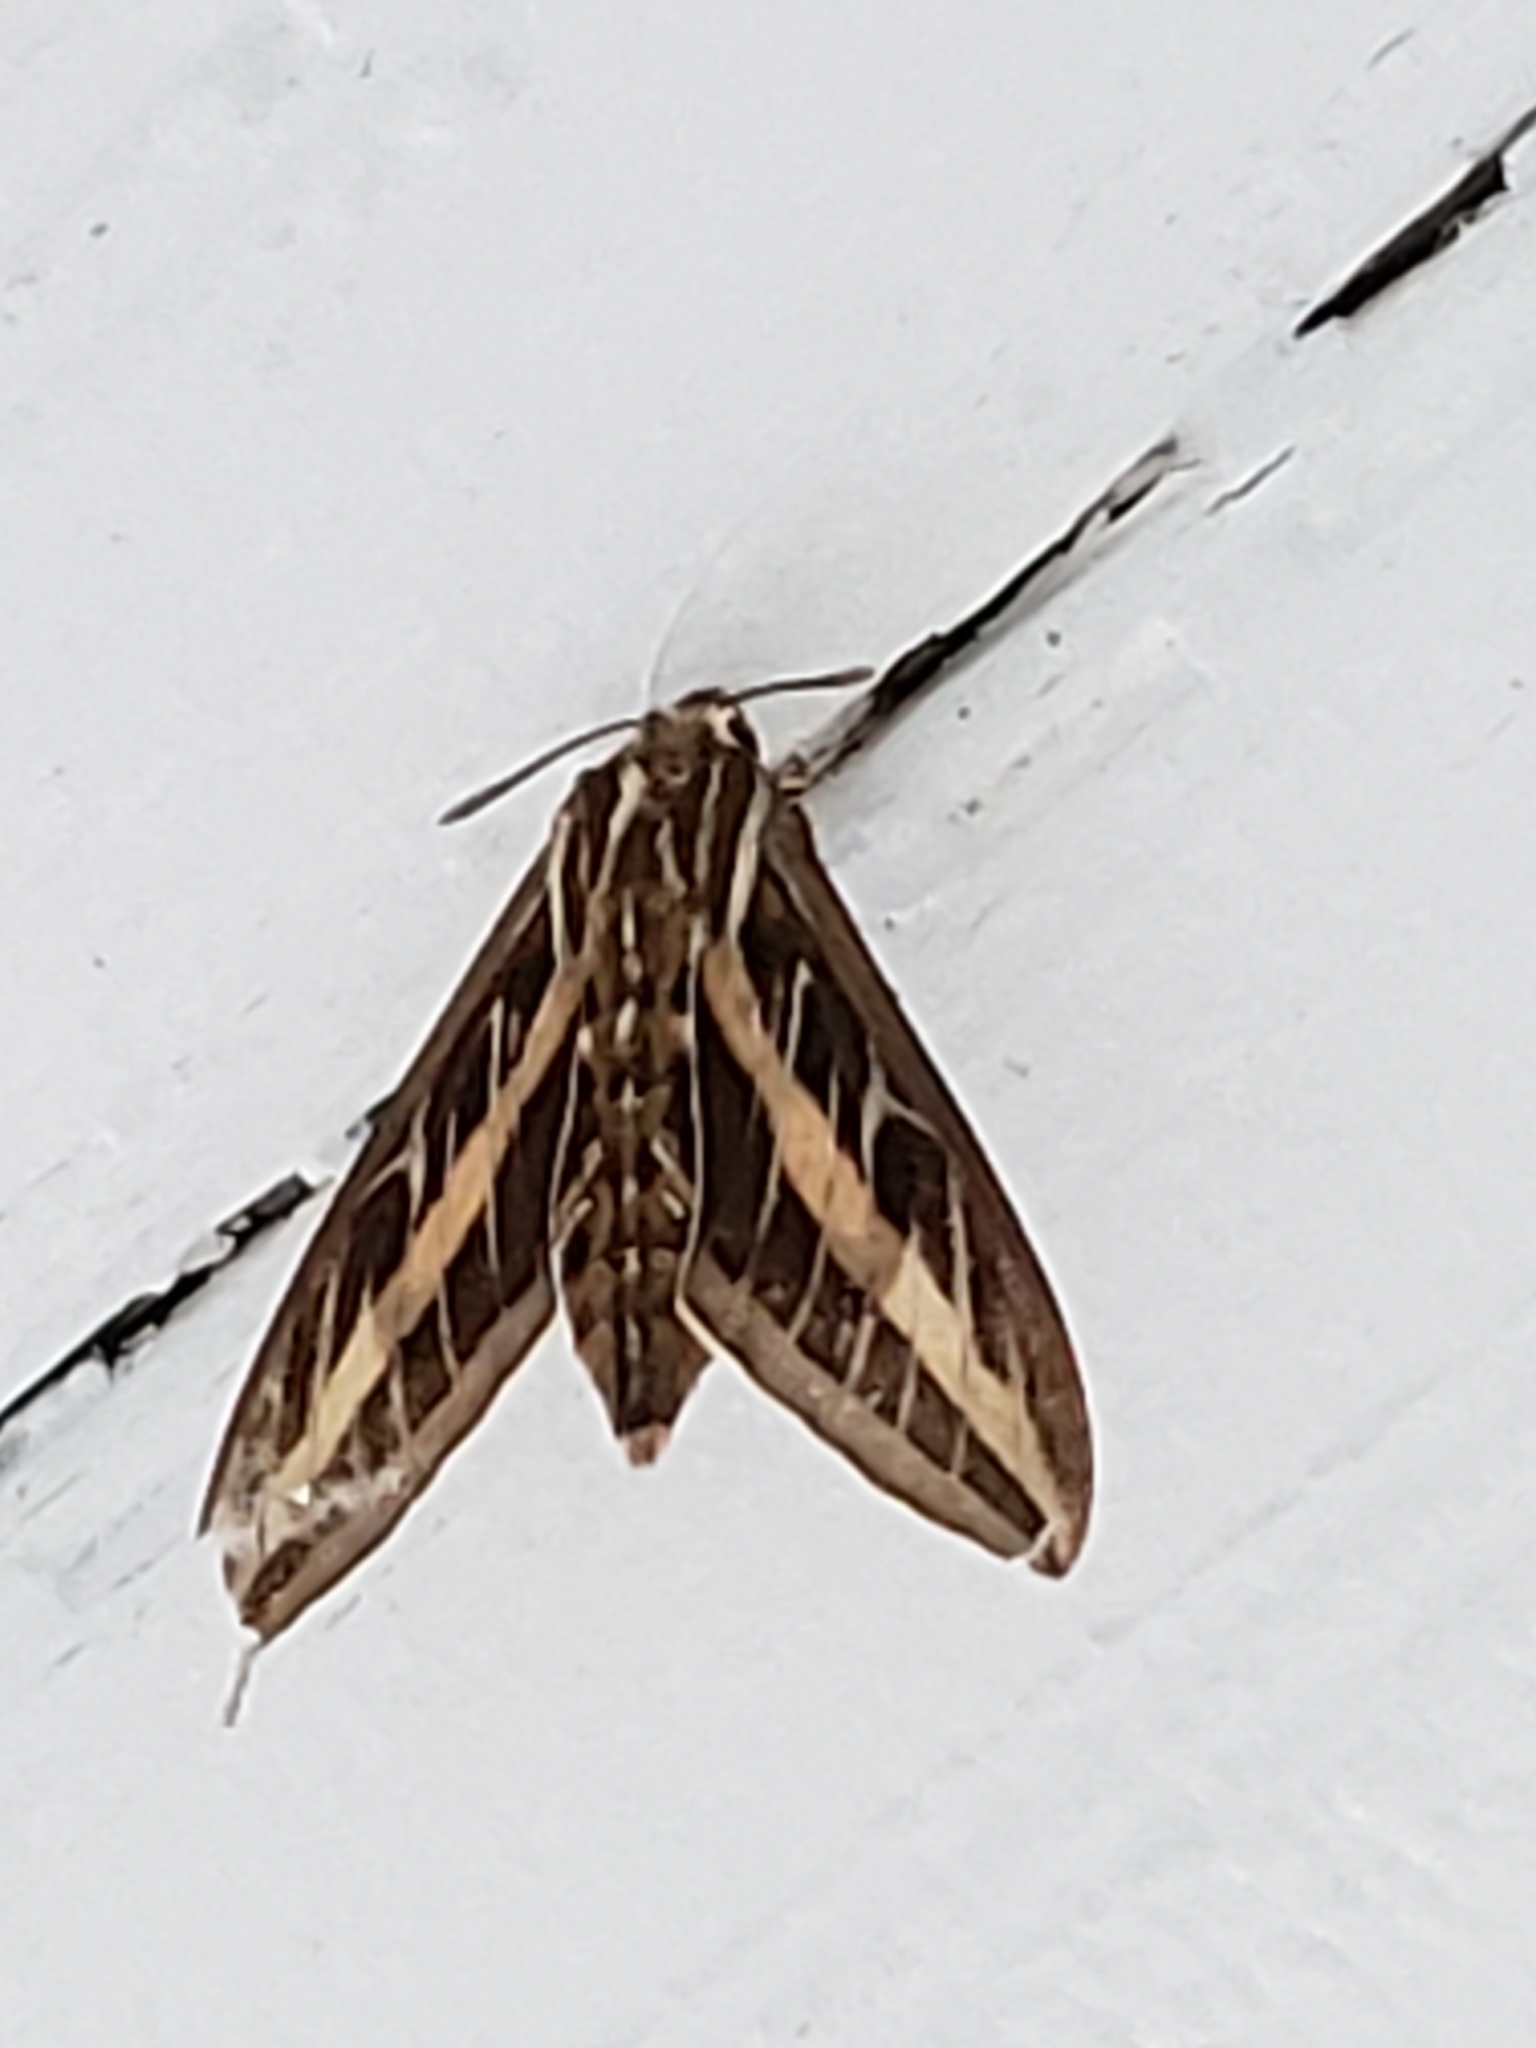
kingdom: Animalia
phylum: Arthropoda
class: Insecta
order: Lepidoptera
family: Sphingidae
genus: Hyles
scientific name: Hyles lineata
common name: White-lined sphinx
